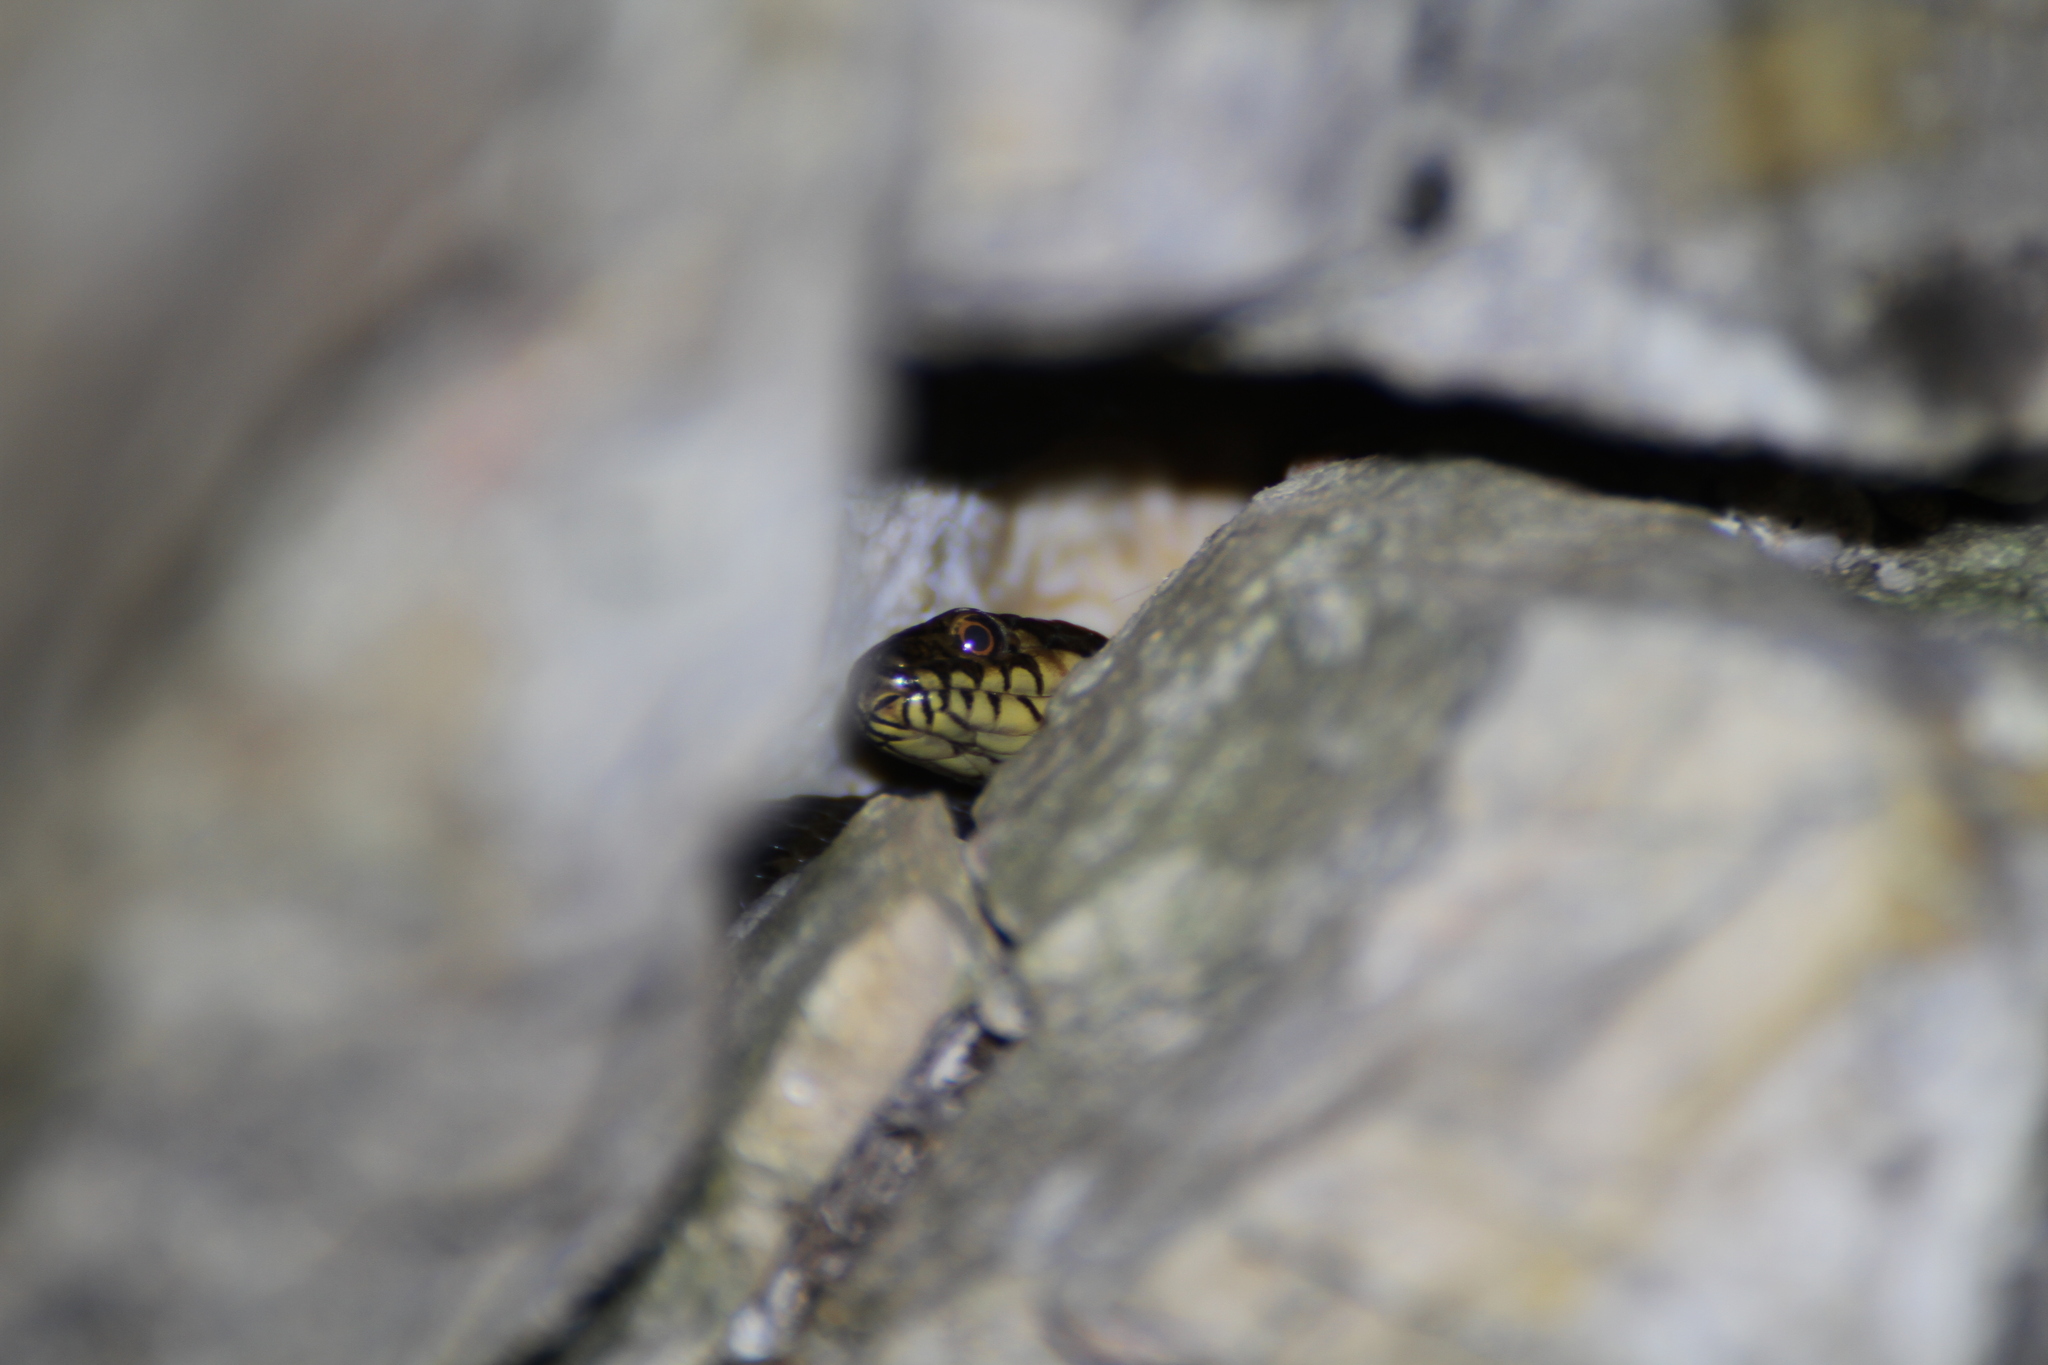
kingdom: Animalia
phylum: Chordata
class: Squamata
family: Colubridae
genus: Natrix
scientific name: Natrix maura
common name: Viperine water snake
